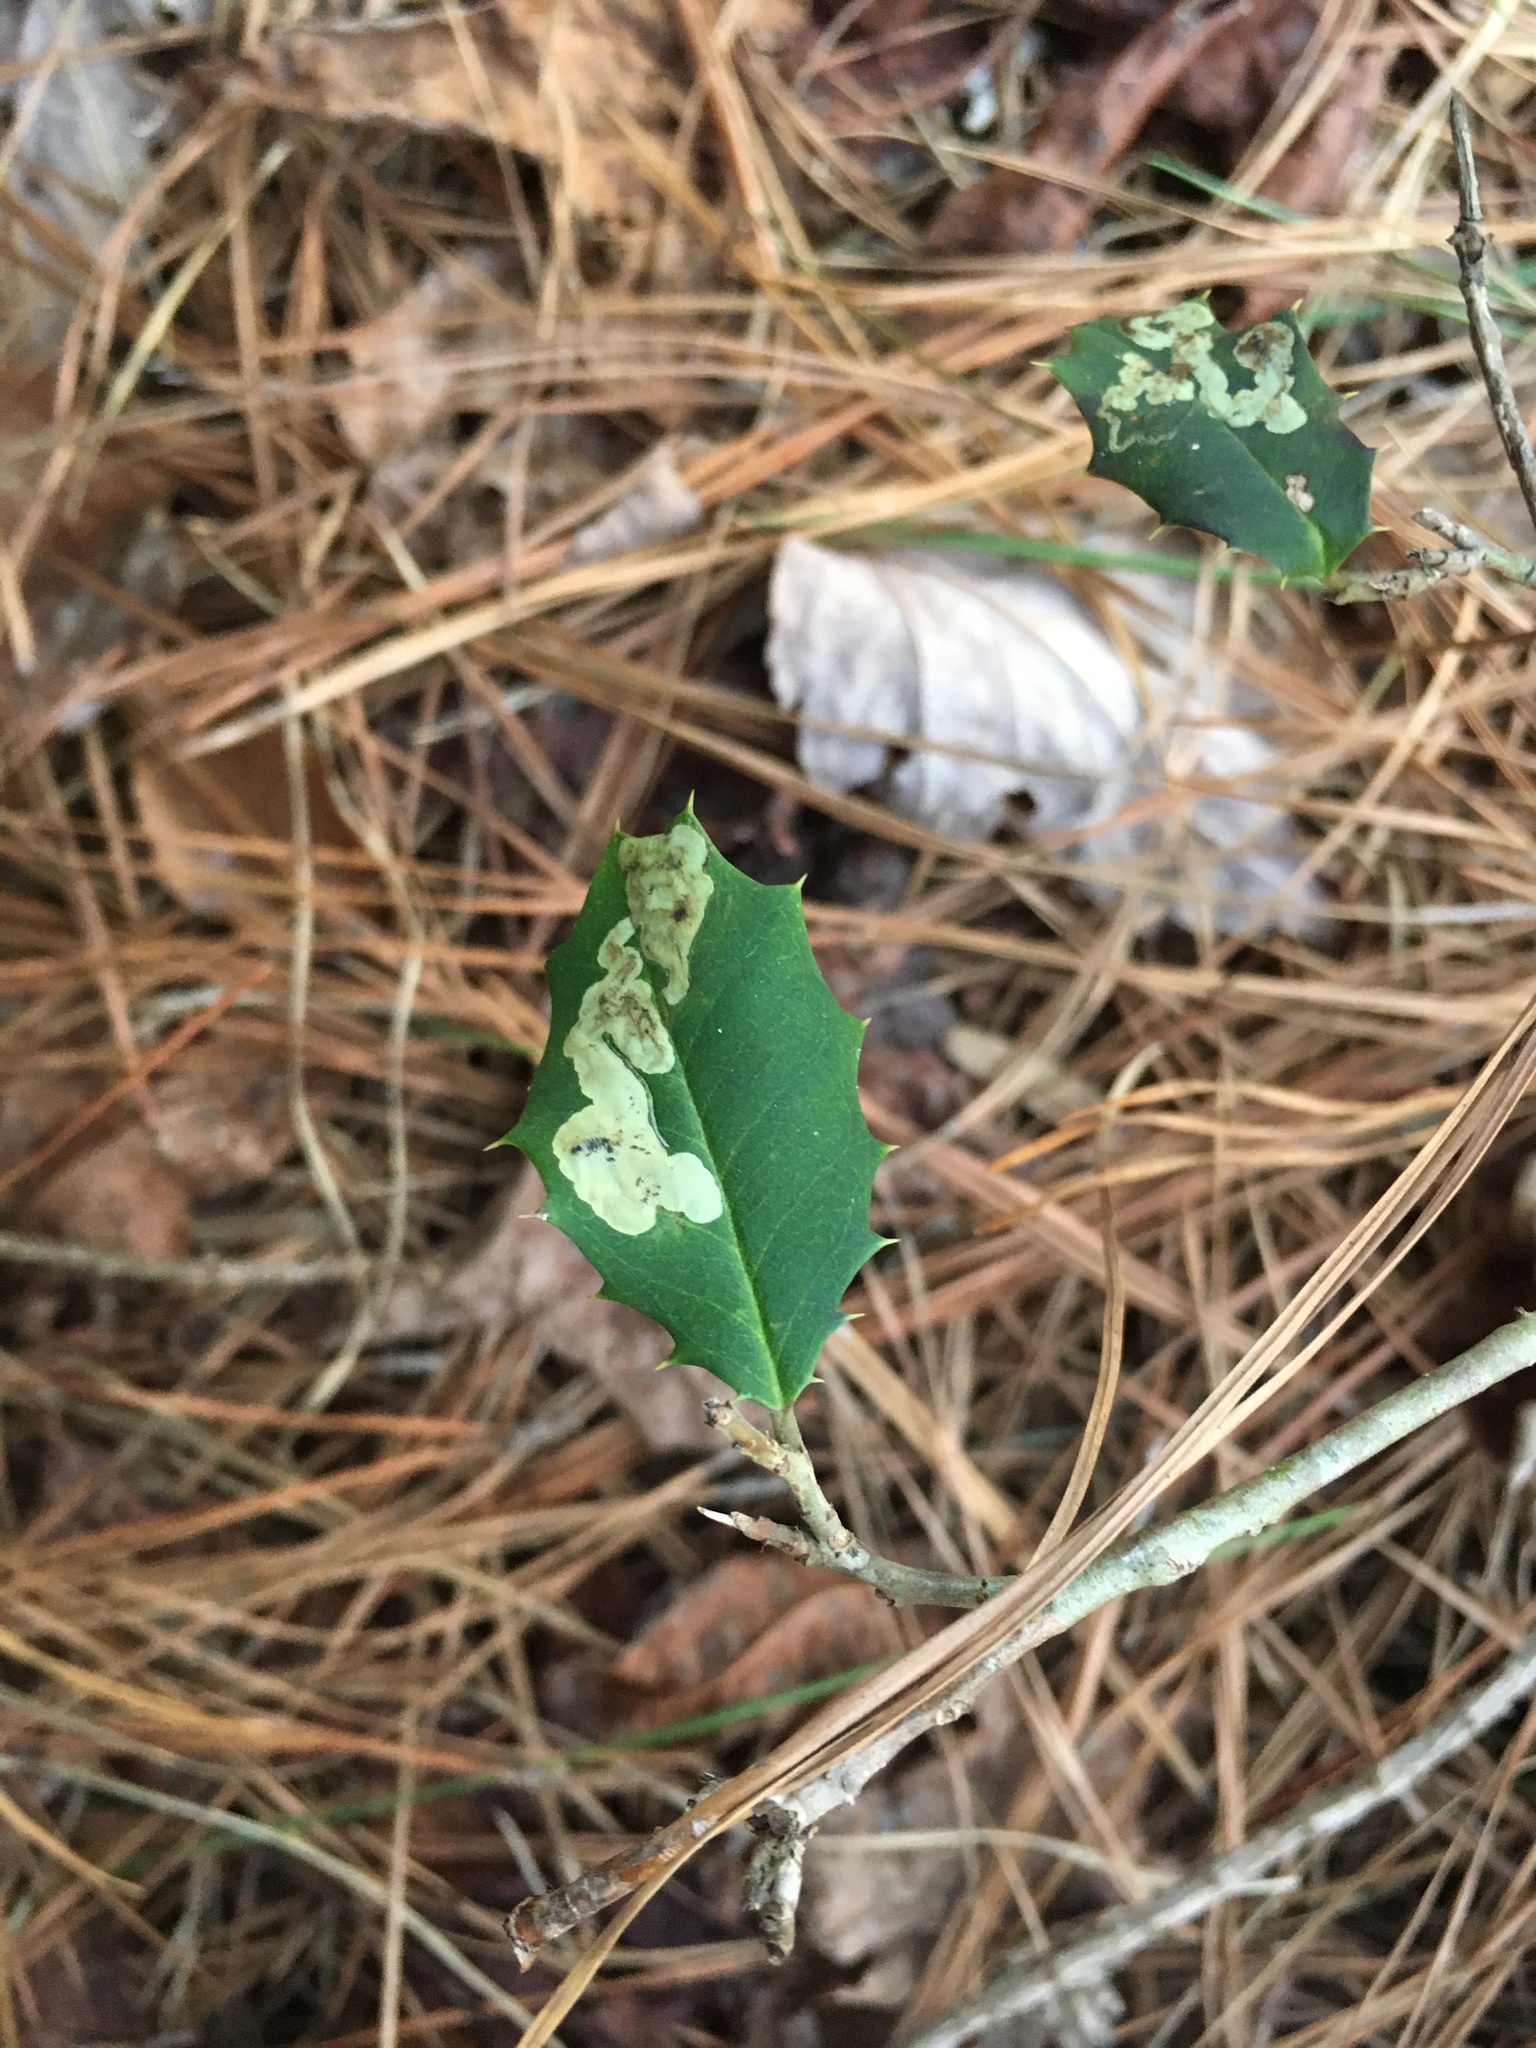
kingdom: Animalia
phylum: Arthropoda
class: Insecta
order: Diptera
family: Agromyzidae
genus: Phytomyza
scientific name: Phytomyza ilicicola
